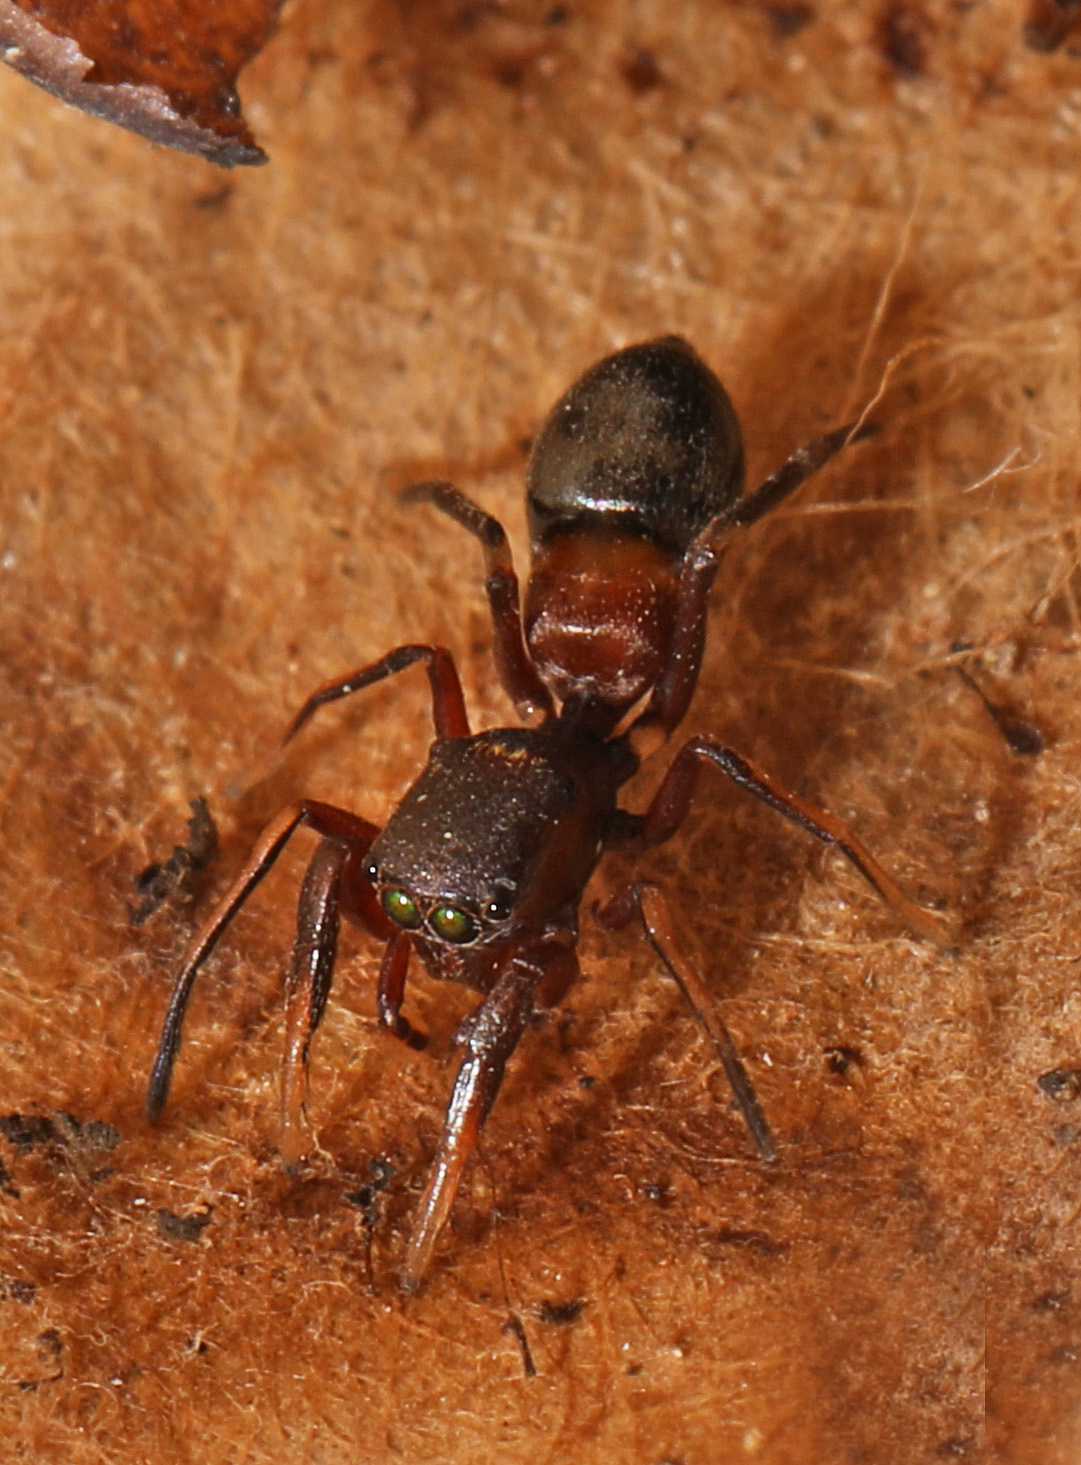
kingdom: Animalia
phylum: Arthropoda
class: Arachnida
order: Araneae
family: Salticidae
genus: Peckhamia
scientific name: Peckhamia
